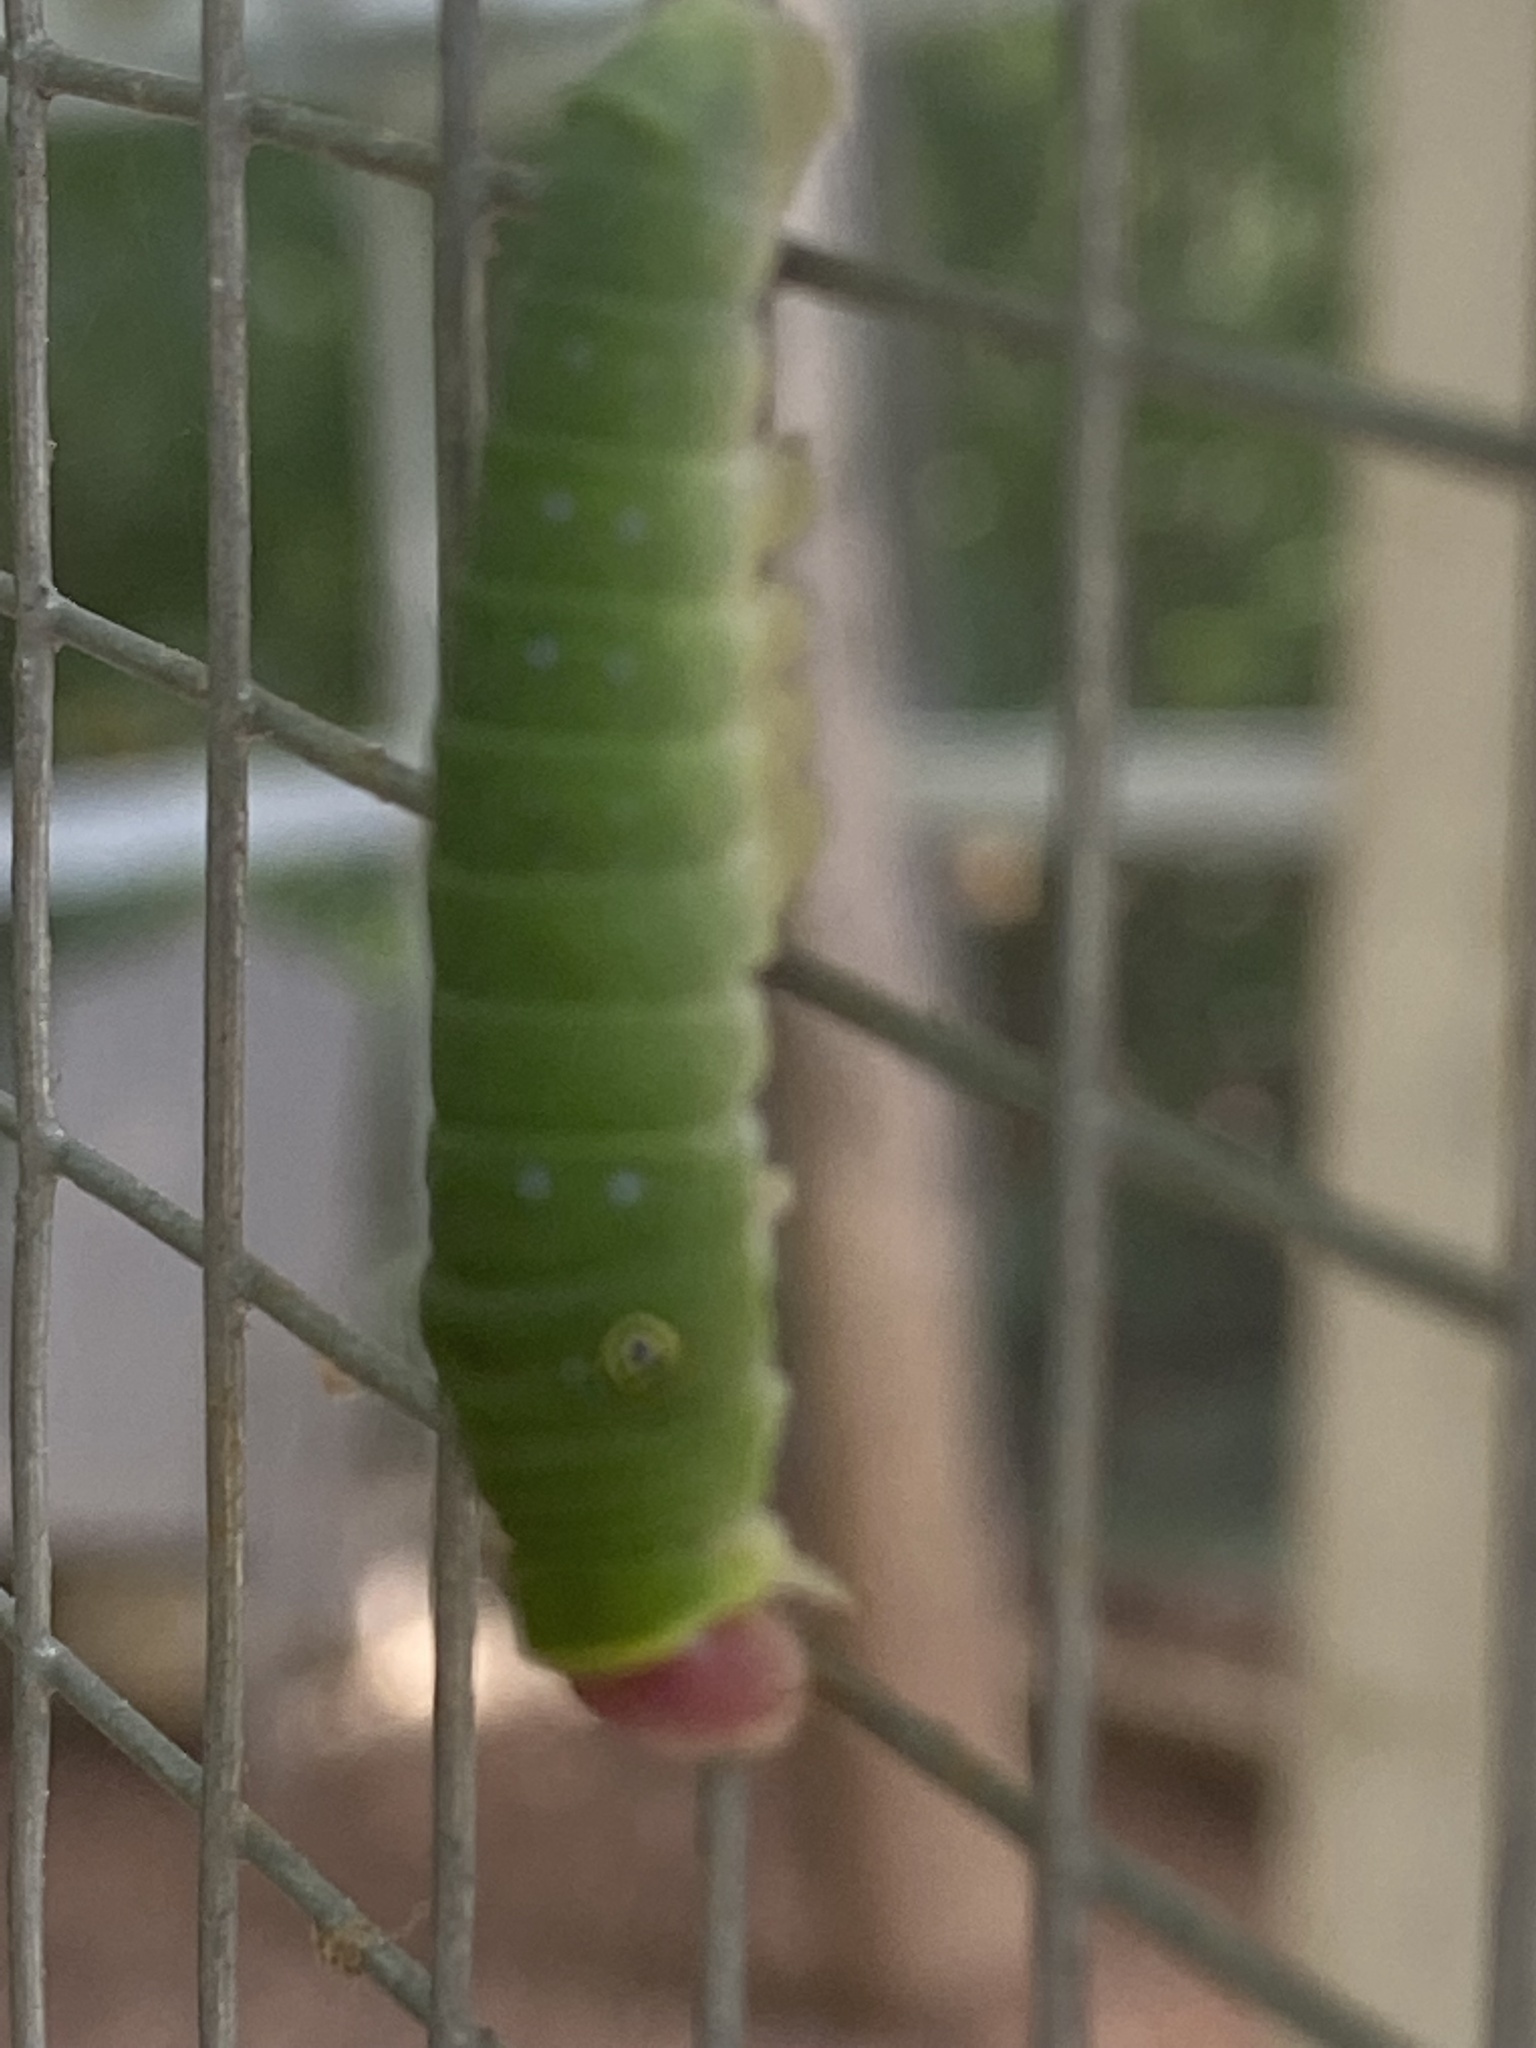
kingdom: Animalia
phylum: Arthropoda
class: Insecta
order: Lepidoptera
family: Papilionidae
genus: Papilio
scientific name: Papilio glaucus
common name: Tiger swallowtail
